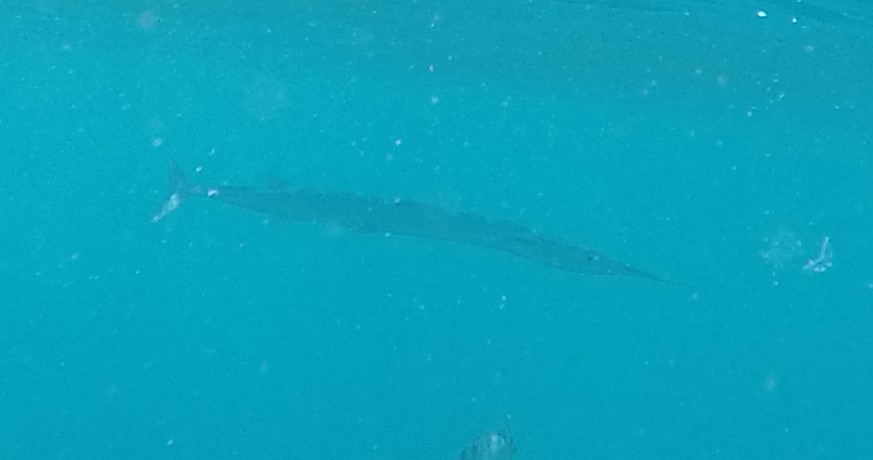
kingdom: Animalia
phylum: Chordata
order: Beloniformes
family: Belonidae
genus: Tylosurus
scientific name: Tylosurus crocodilus
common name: Houndfish
